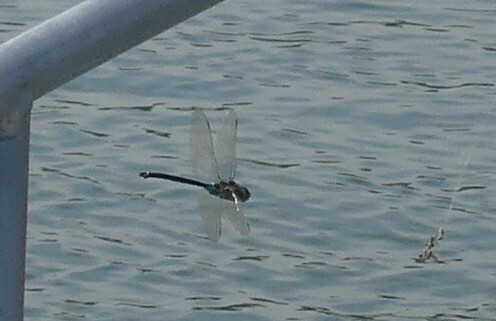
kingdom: Animalia
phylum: Arthropoda
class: Insecta
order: Odonata
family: Aeshnidae
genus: Anax
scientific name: Anax parthenope
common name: Lesser emperor
